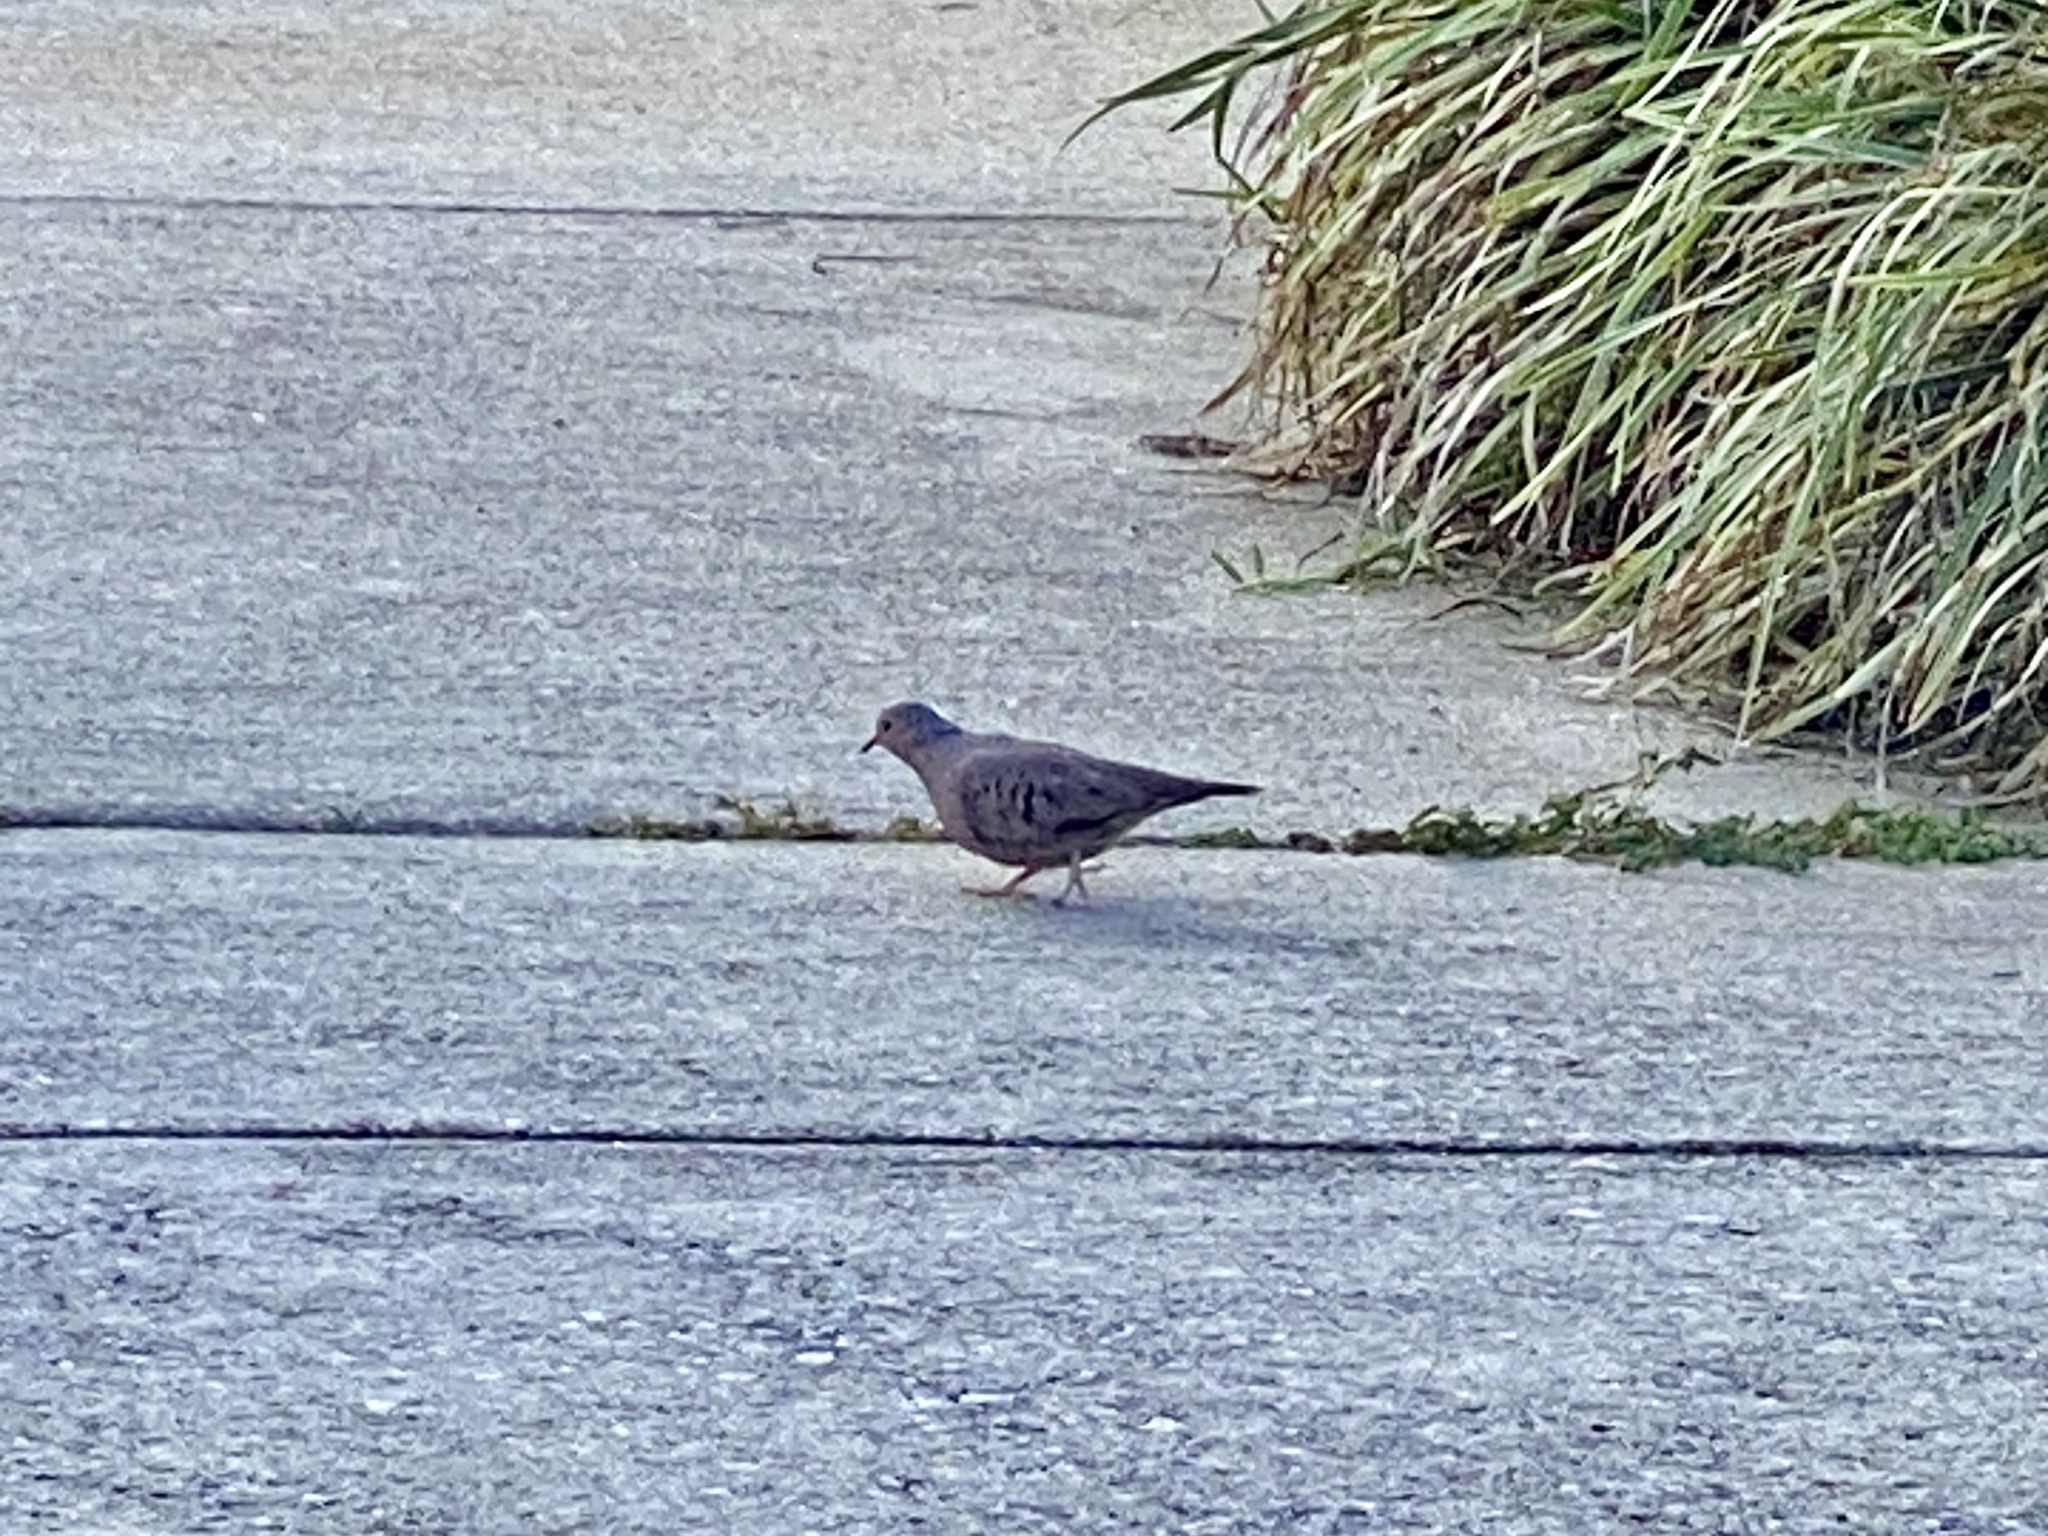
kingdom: Animalia
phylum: Chordata
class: Aves
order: Columbiformes
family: Columbidae
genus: Columbina
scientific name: Columbina passerina
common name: Common ground-dove
